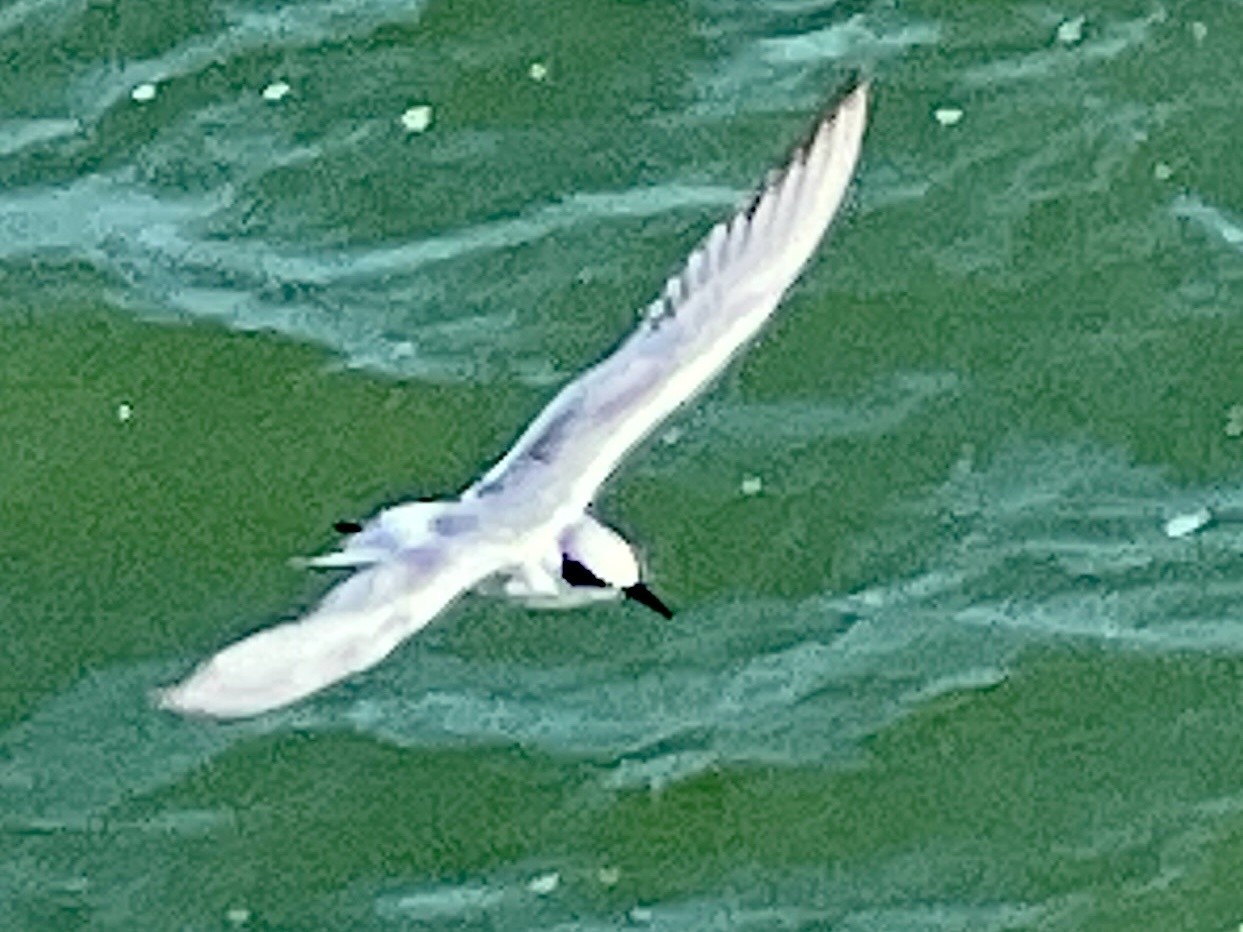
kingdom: Animalia
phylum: Chordata
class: Aves
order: Charadriiformes
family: Laridae
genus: Sterna
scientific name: Sterna forsteri
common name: Forster's tern
